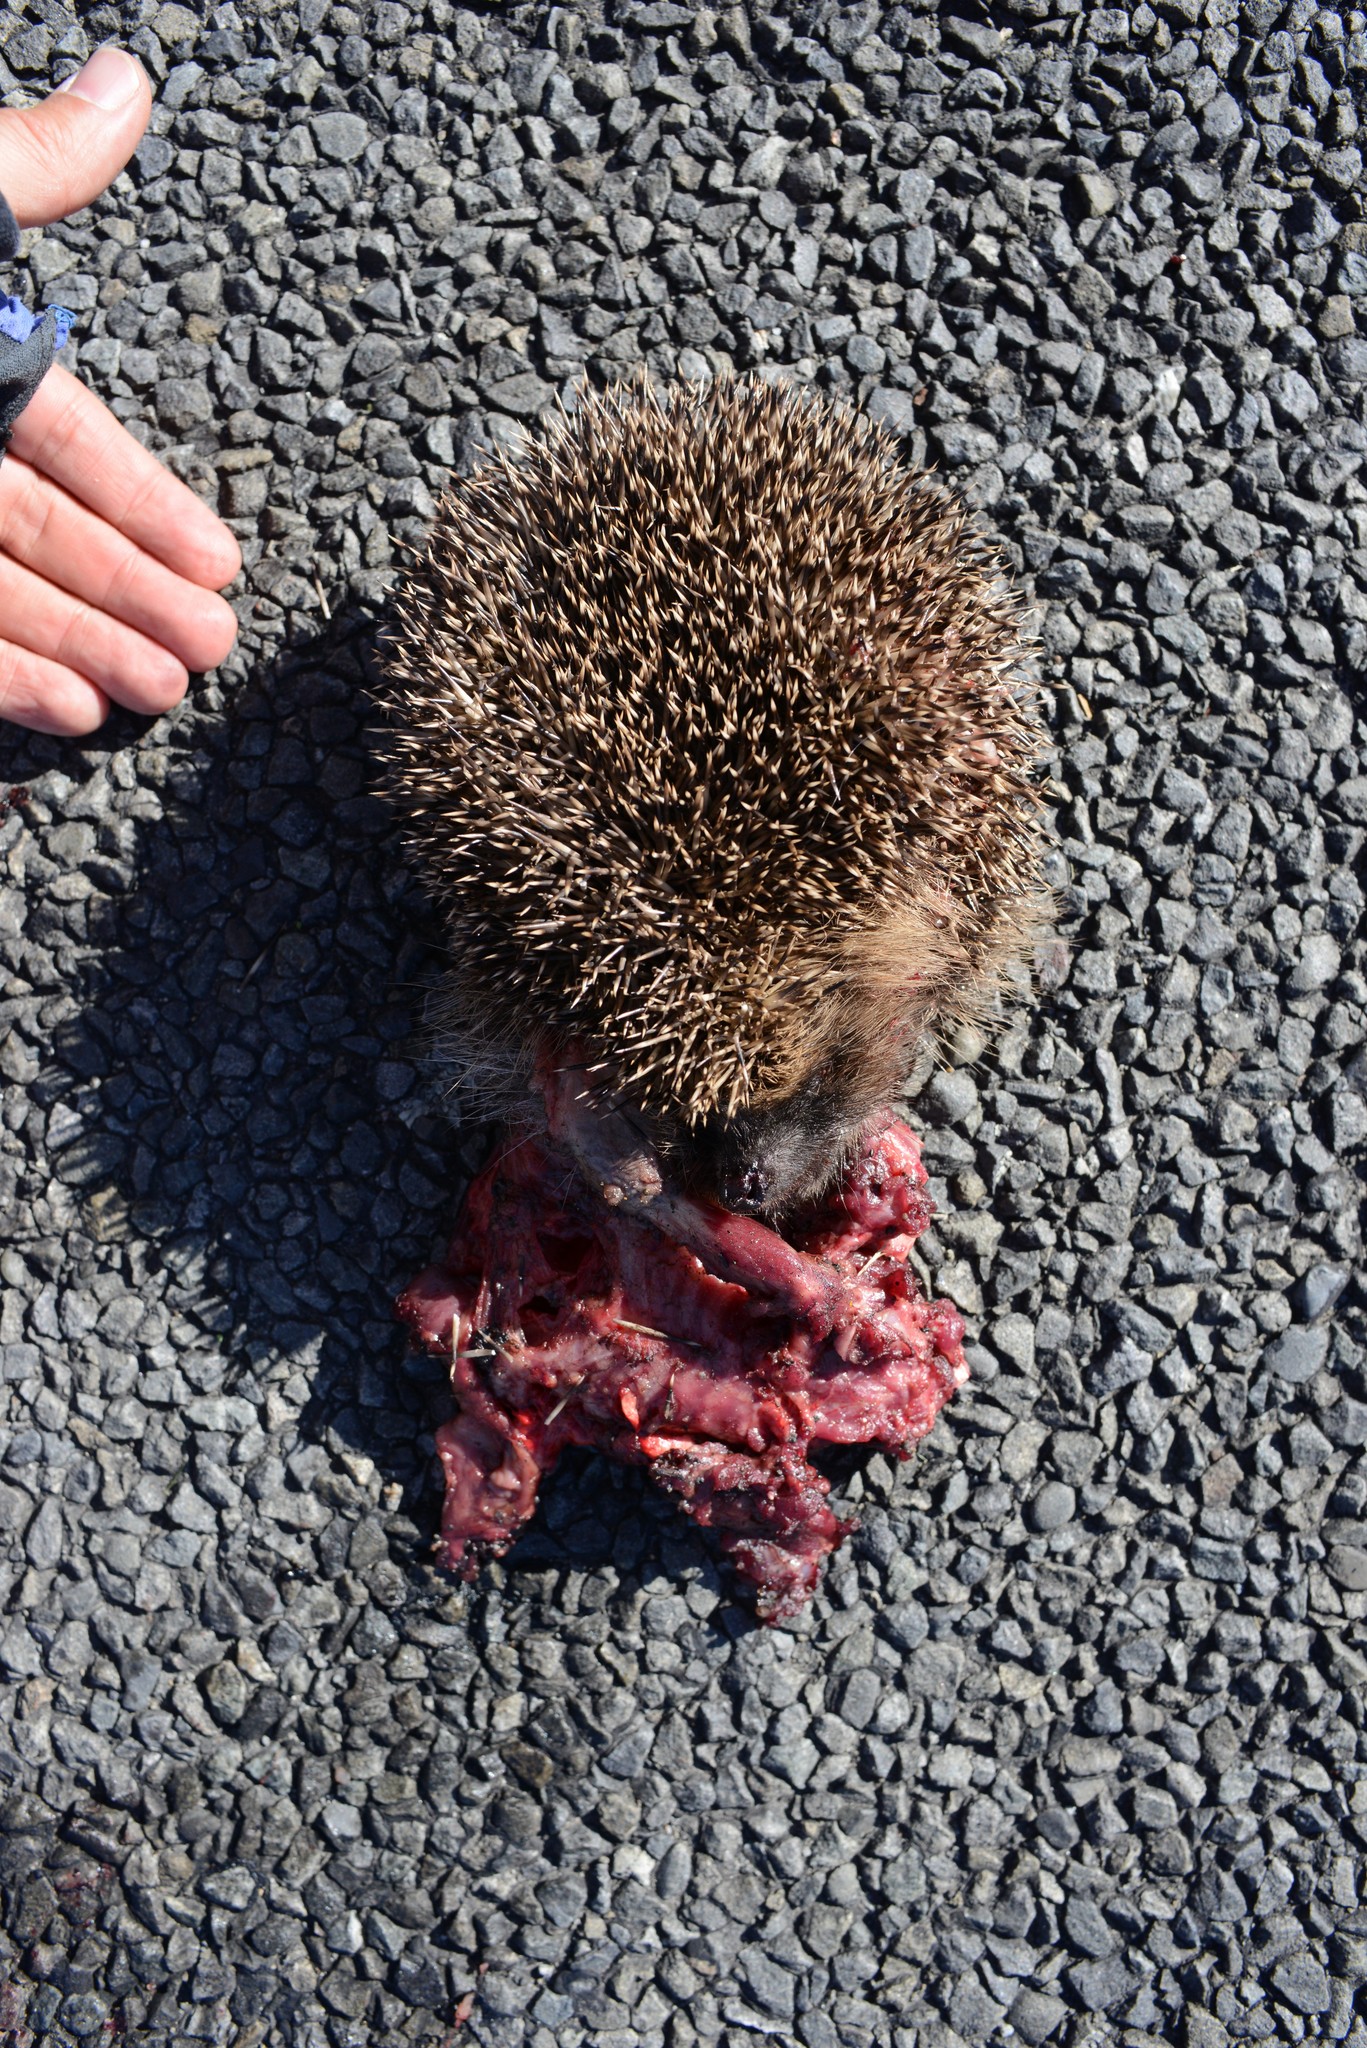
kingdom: Animalia
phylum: Chordata
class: Mammalia
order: Erinaceomorpha
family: Erinaceidae
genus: Erinaceus
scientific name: Erinaceus europaeus
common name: West european hedgehog
